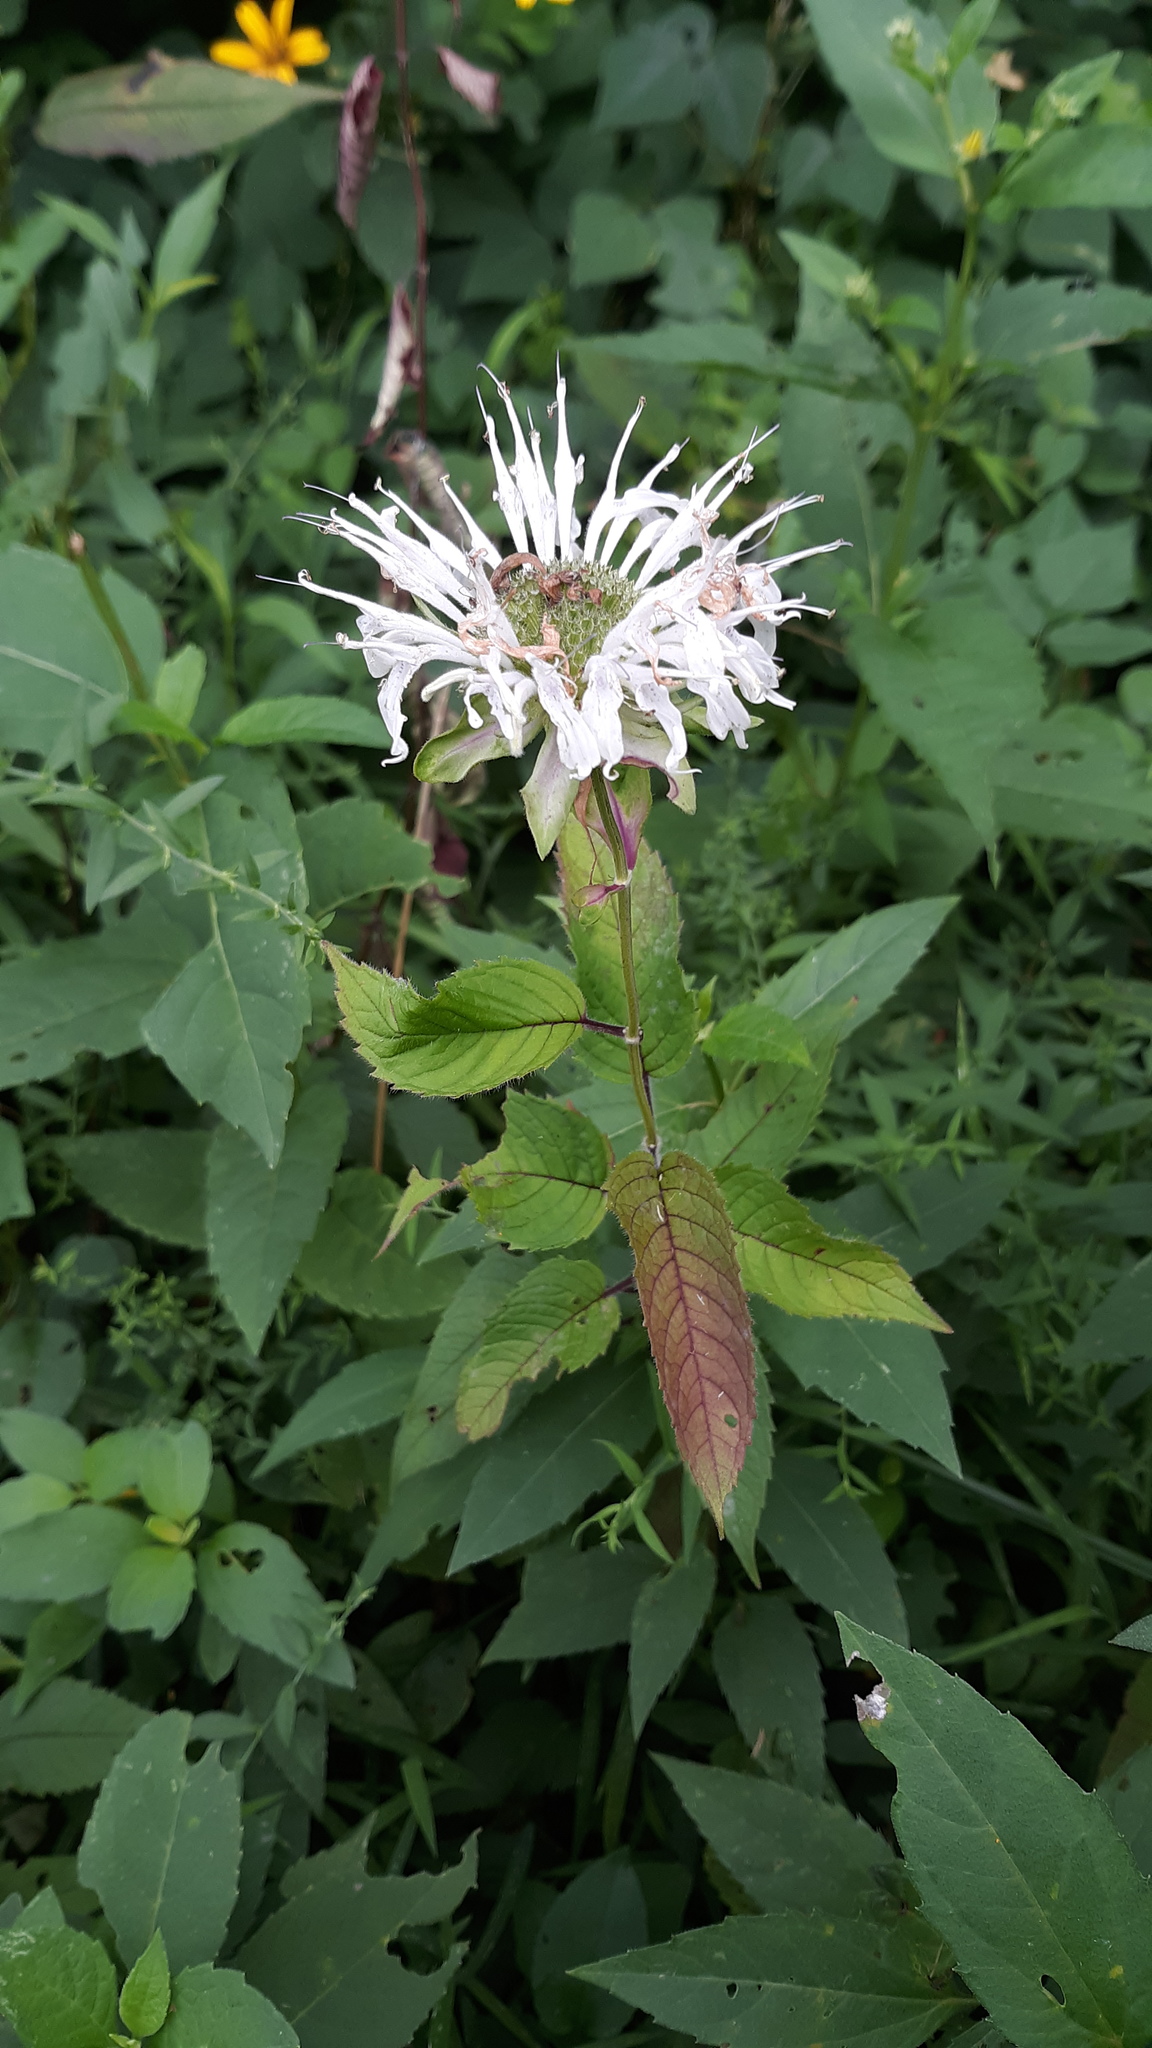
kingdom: Plantae
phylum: Tracheophyta
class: Magnoliopsida
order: Lamiales
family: Lamiaceae
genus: Monarda
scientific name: Monarda clinopodia
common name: Basil beebalm
